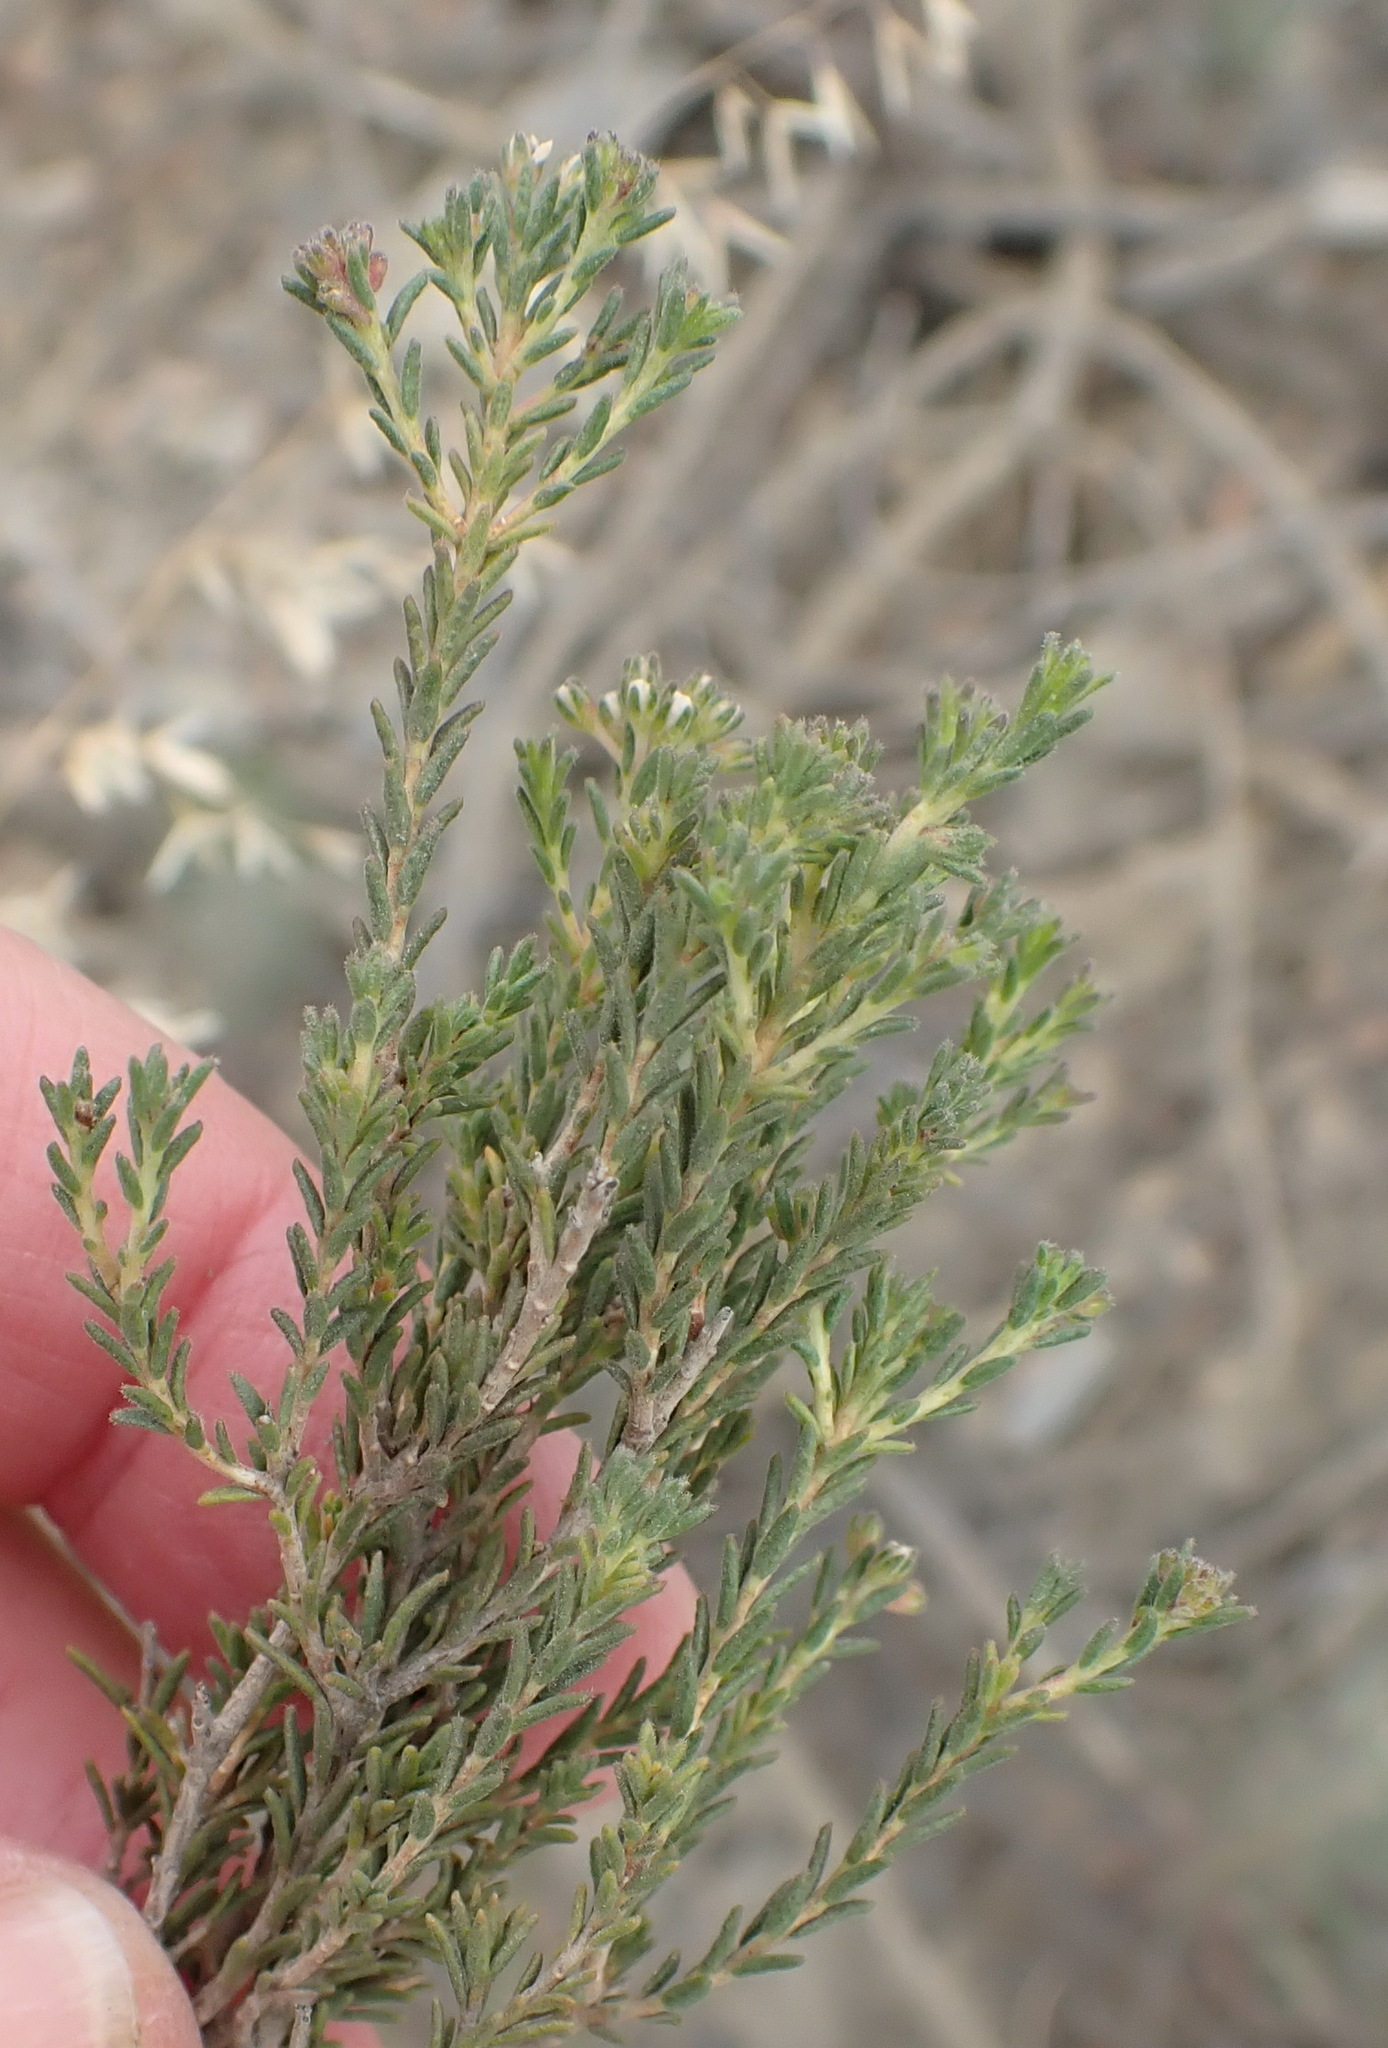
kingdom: Plantae
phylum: Tracheophyta
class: Magnoliopsida
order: Sapindales
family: Rutaceae
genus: Agathosma
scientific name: Agathosma capensis
